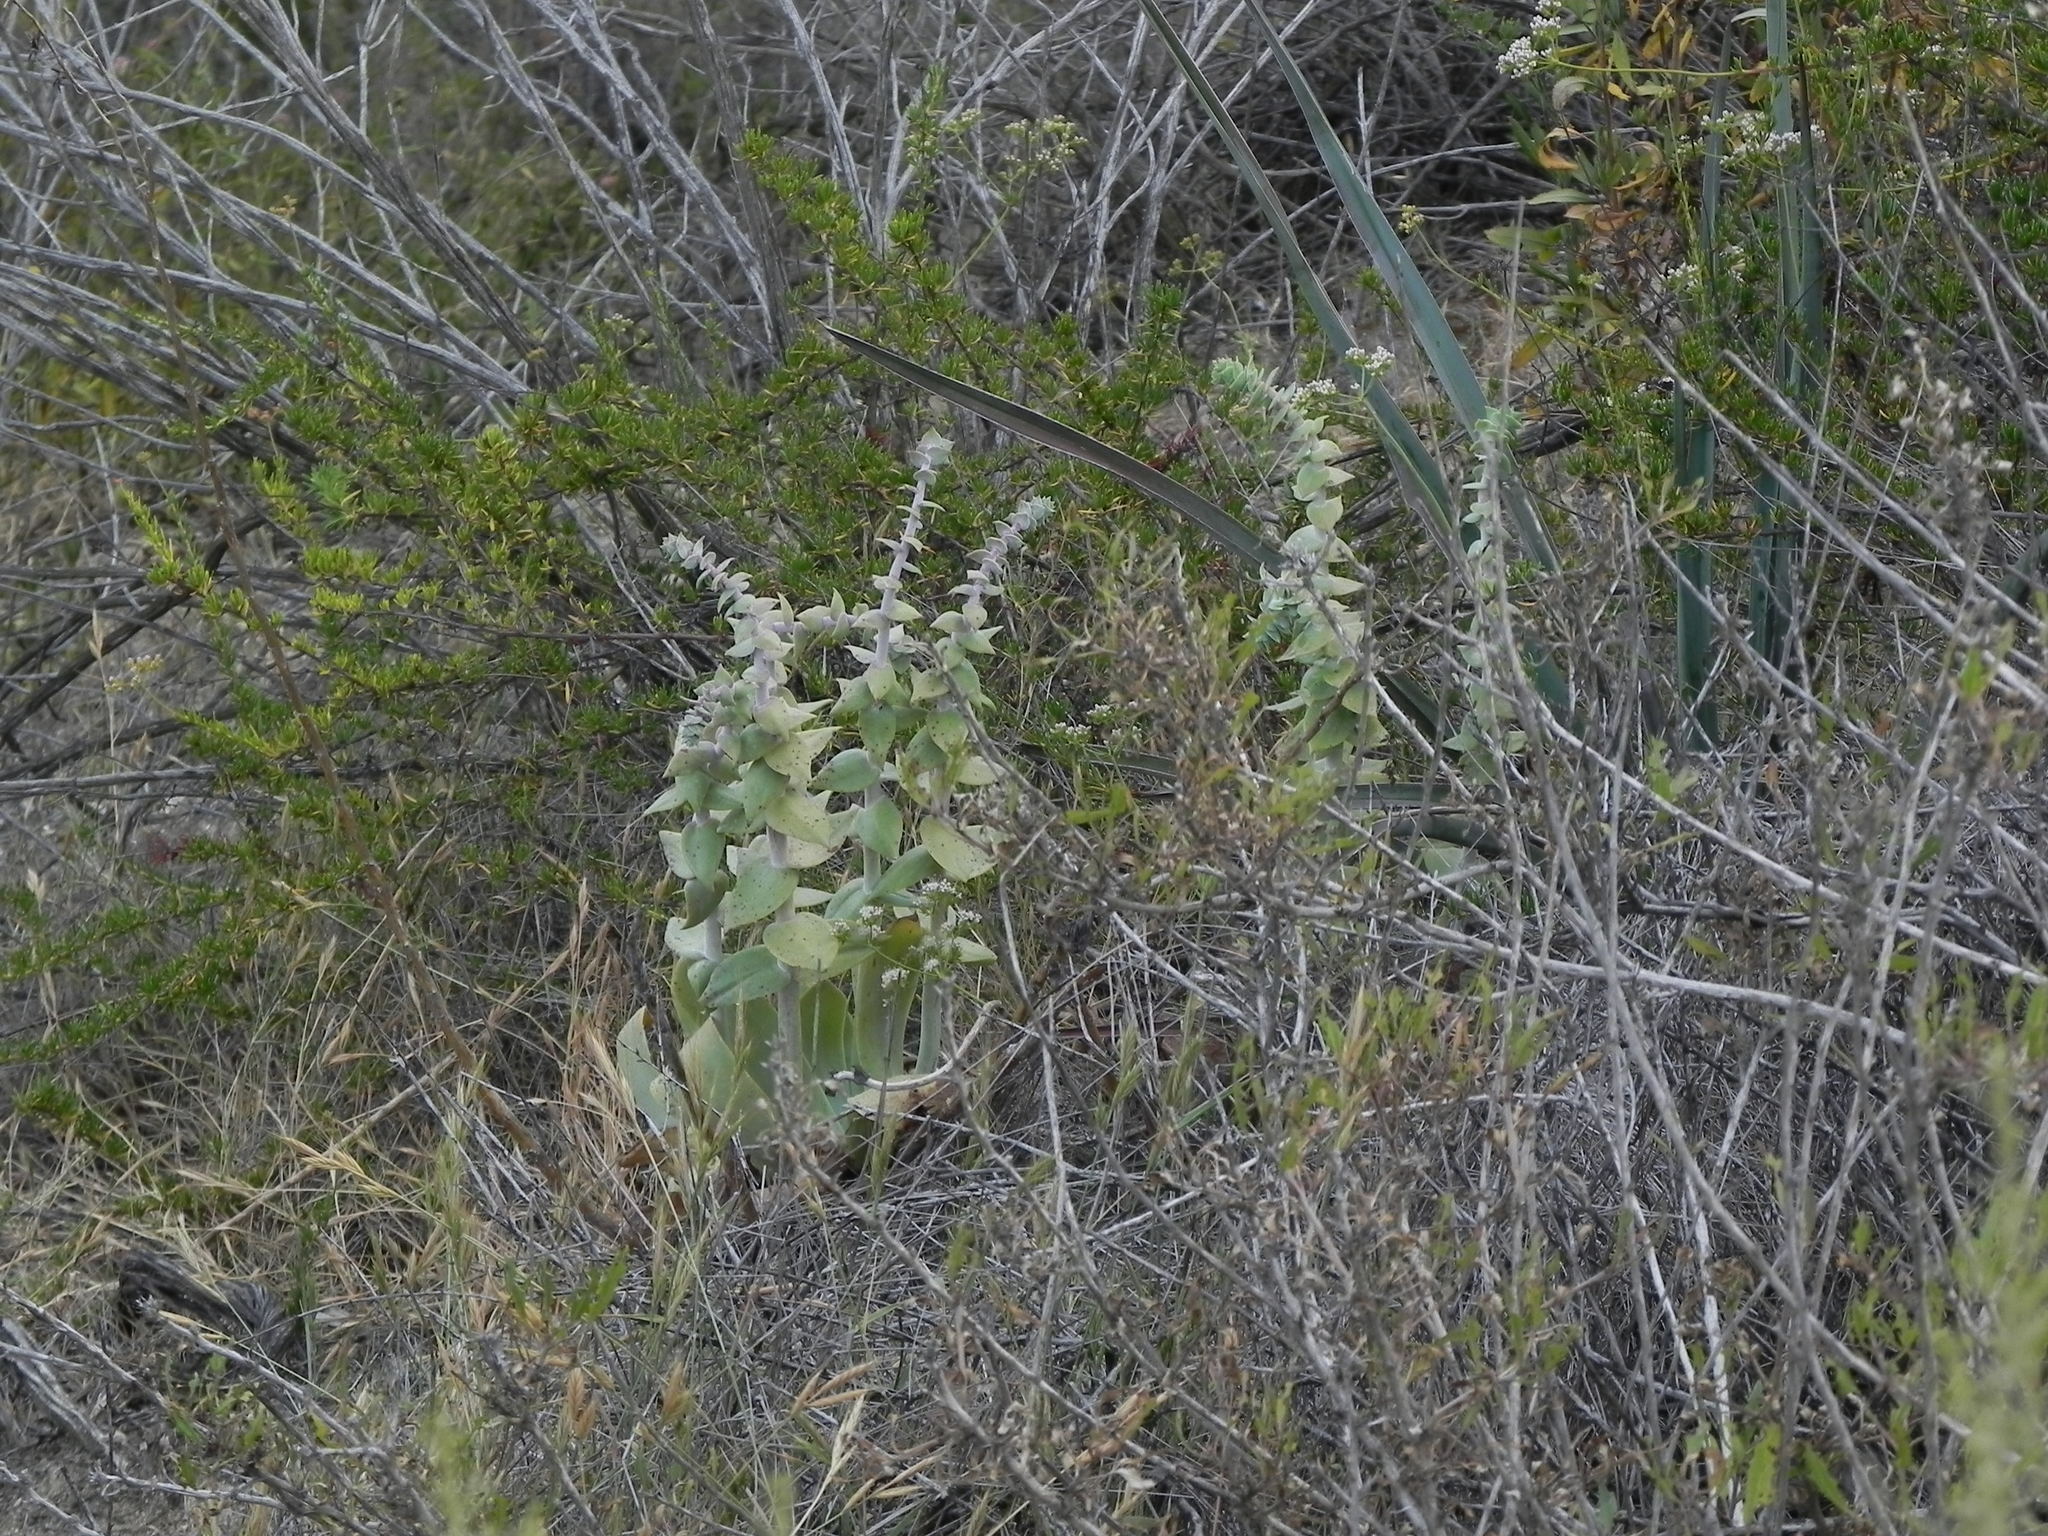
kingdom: Plantae
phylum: Tracheophyta
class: Magnoliopsida
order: Saxifragales
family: Crassulaceae
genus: Dudleya
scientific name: Dudleya pulverulenta
